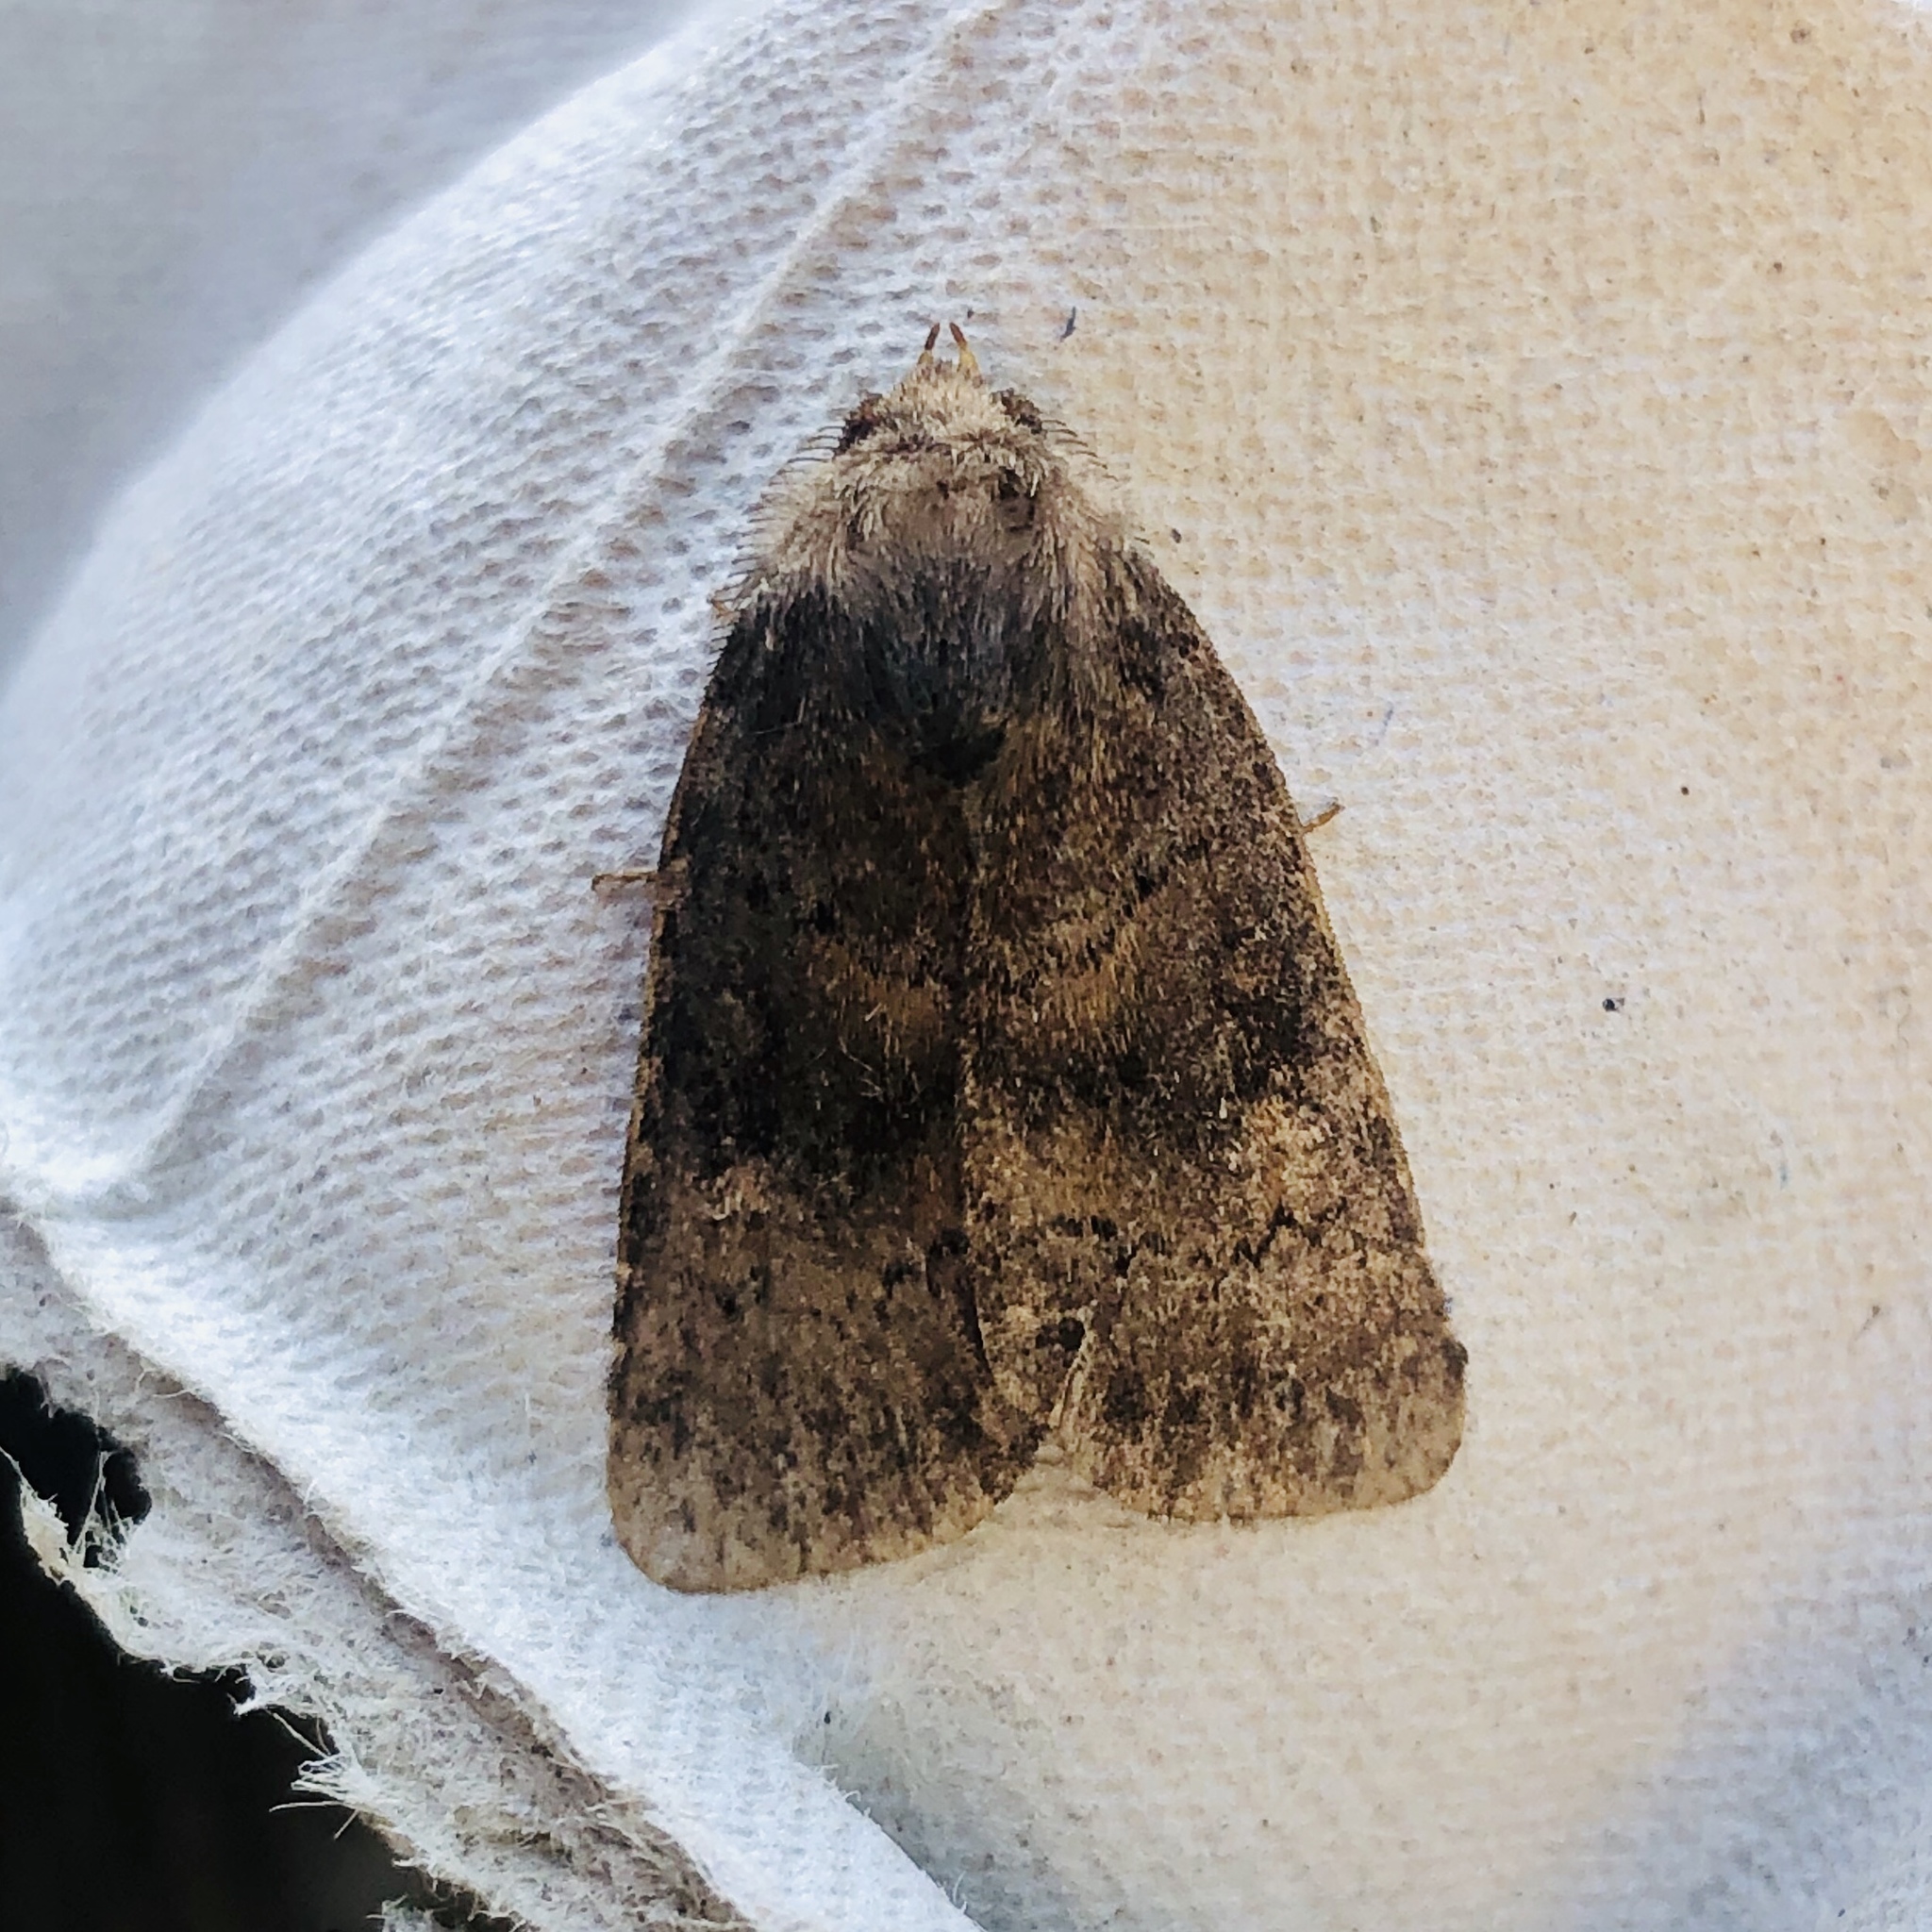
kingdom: Animalia
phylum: Arthropoda
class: Insecta
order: Lepidoptera
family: Noctuidae
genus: Charanyca
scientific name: Charanyca ferruginea
